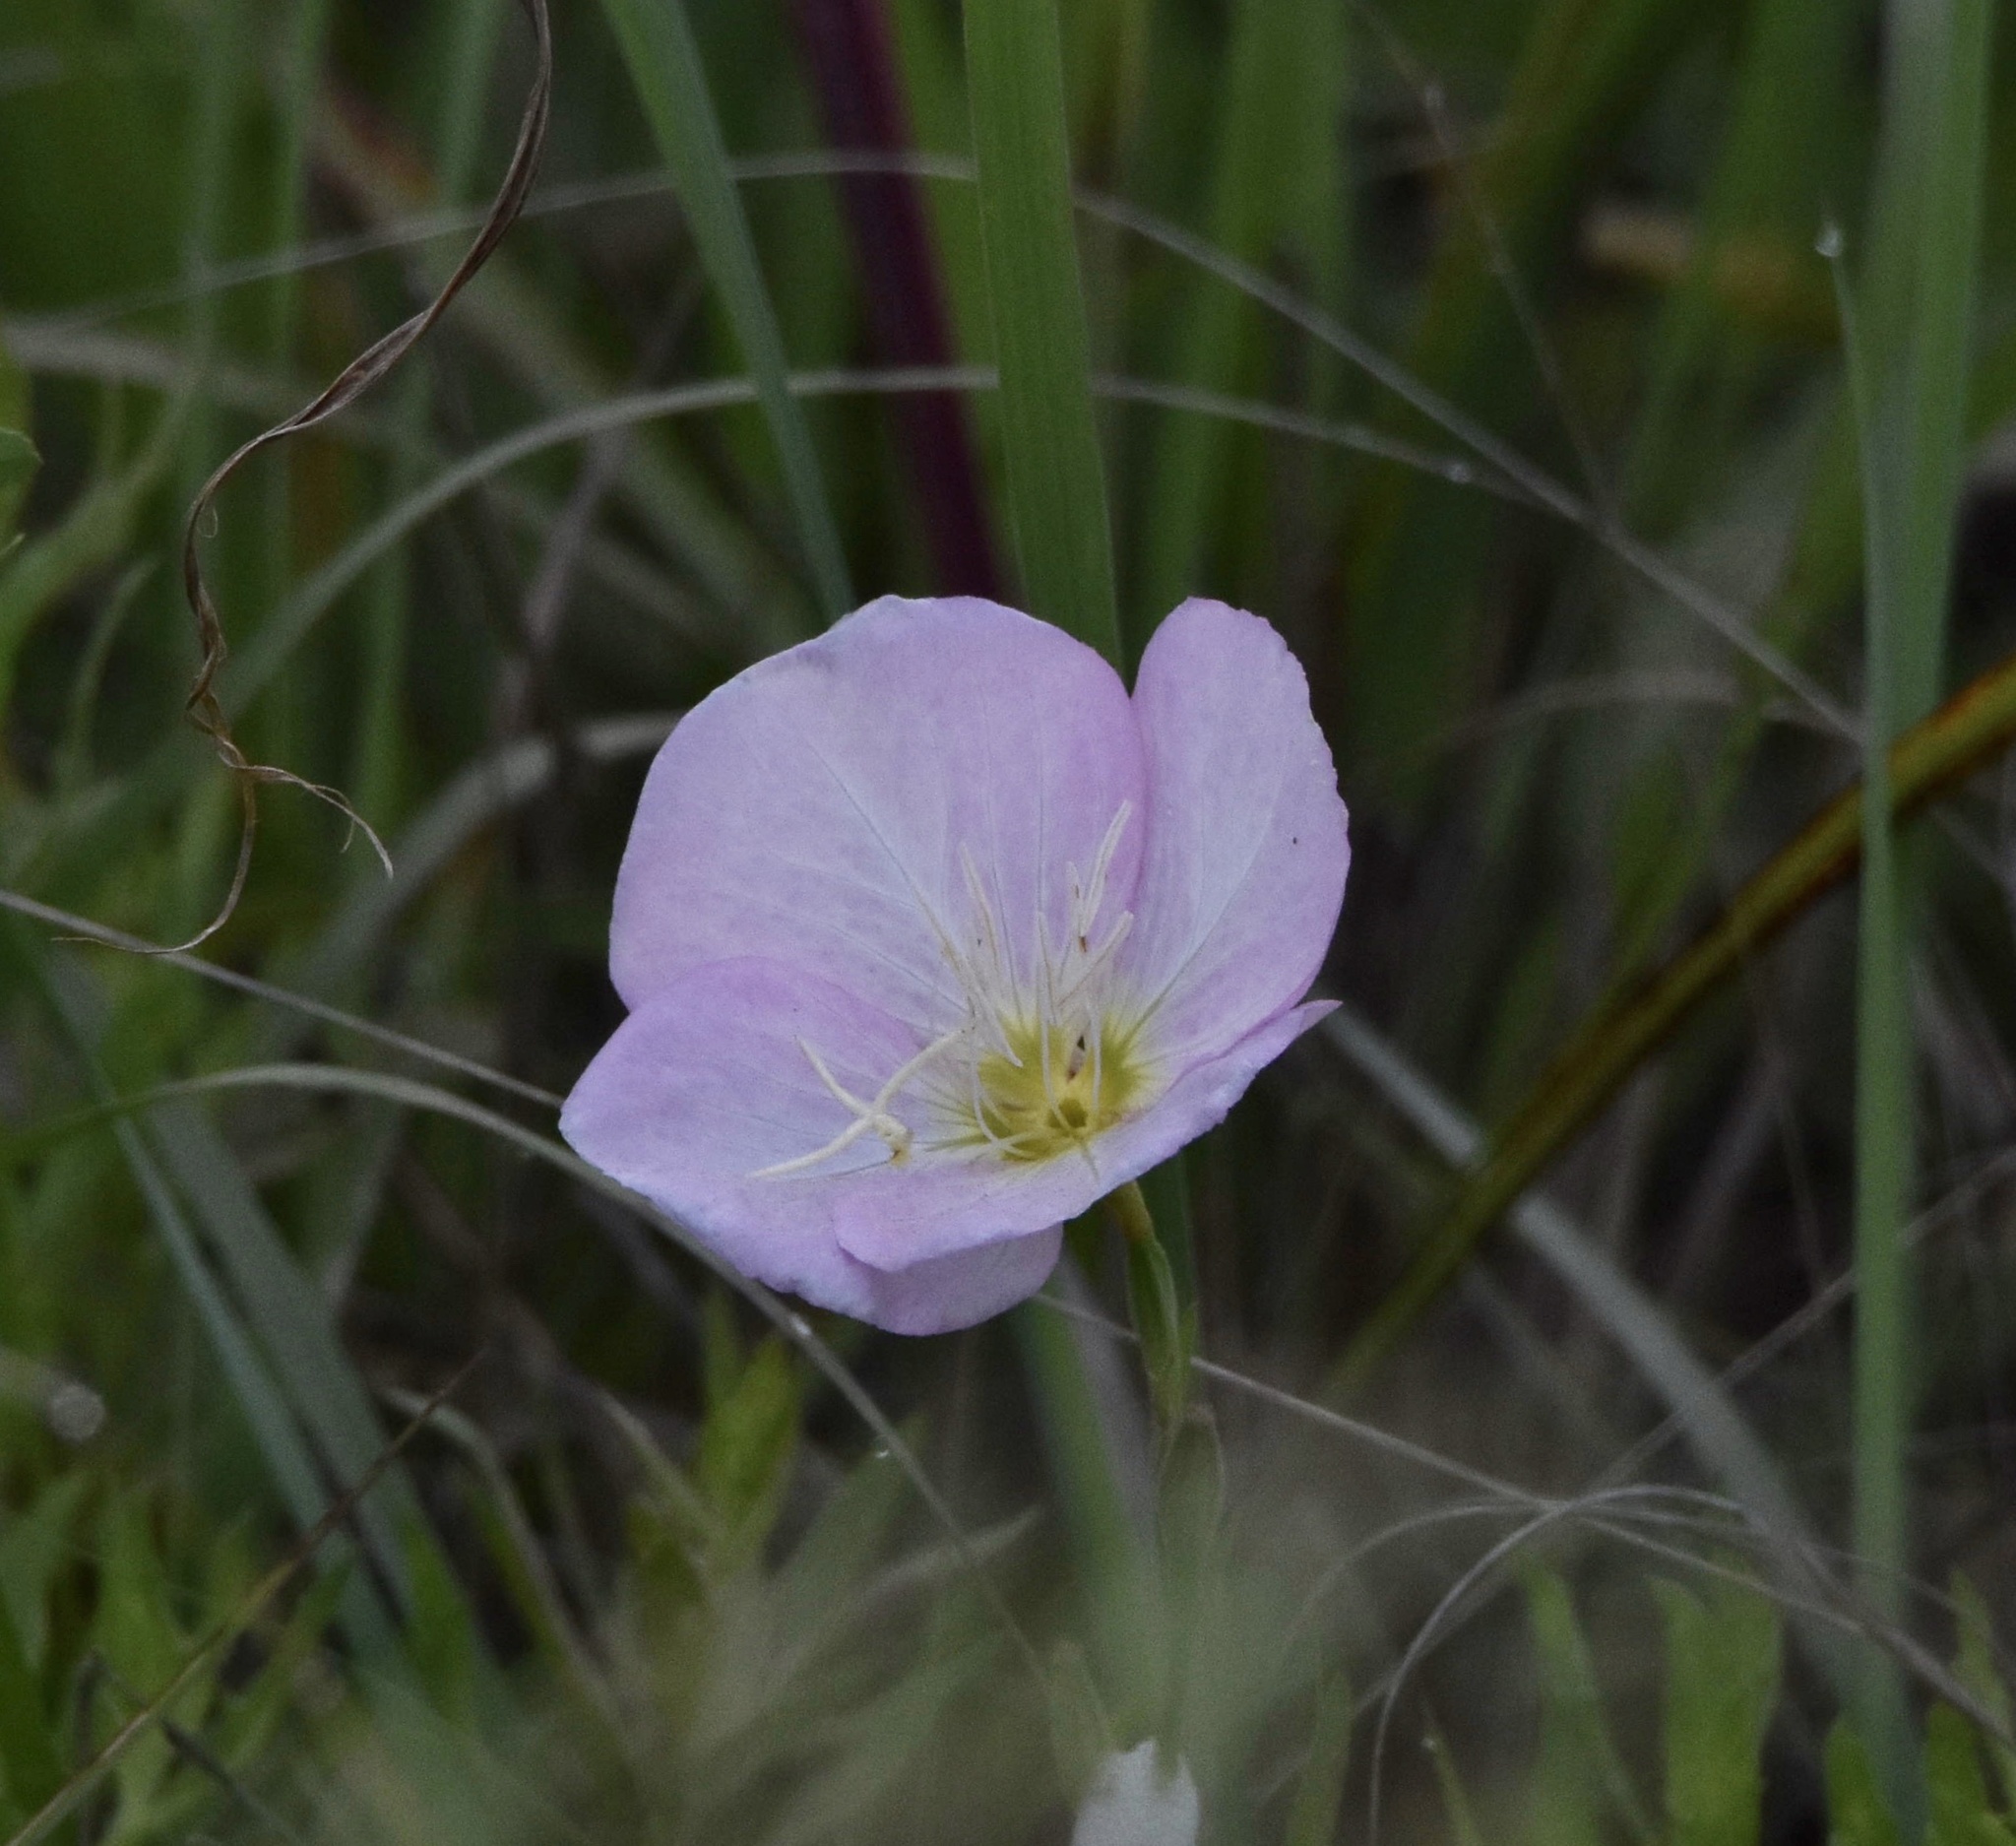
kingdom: Plantae
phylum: Tracheophyta
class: Magnoliopsida
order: Myrtales
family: Onagraceae
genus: Oenothera
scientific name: Oenothera speciosa
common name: White evening-primrose
